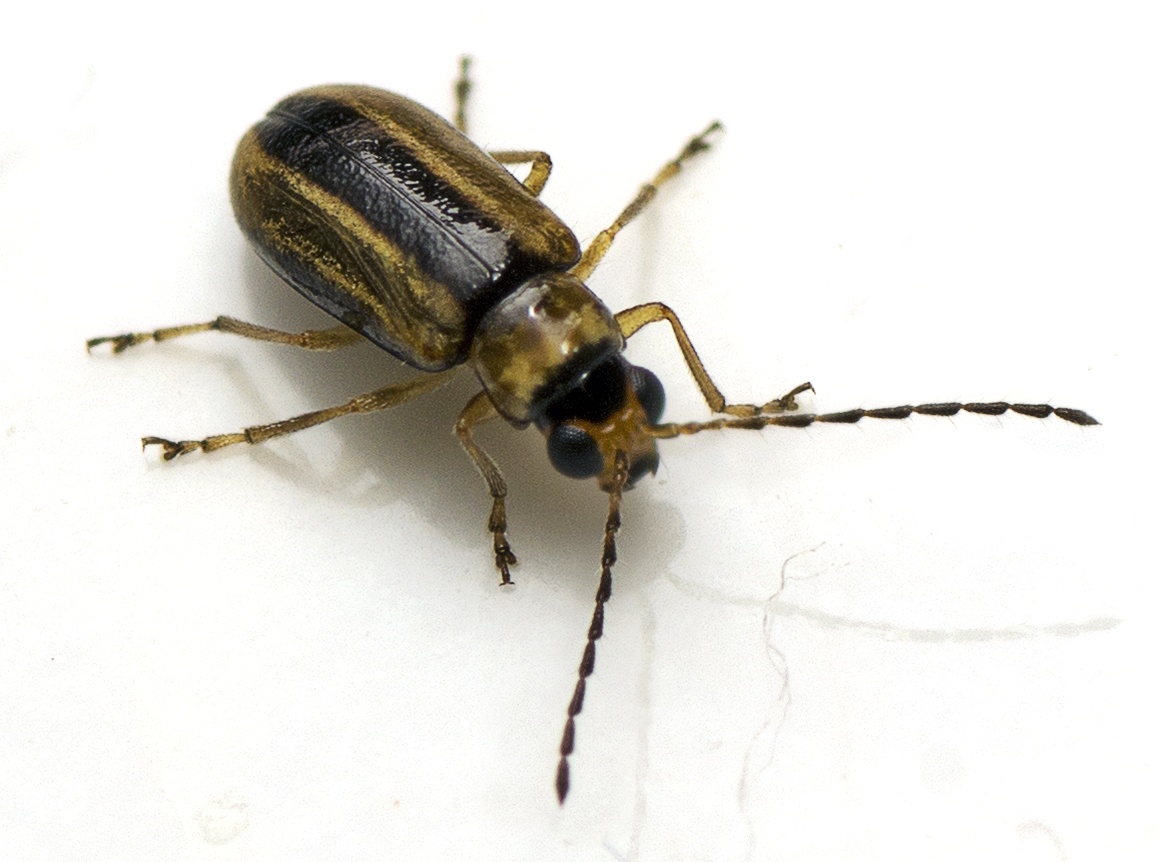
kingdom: Animalia
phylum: Arthropoda
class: Insecta
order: Coleoptera
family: Chrysomelidae
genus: Monolepta
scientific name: Monolepta
